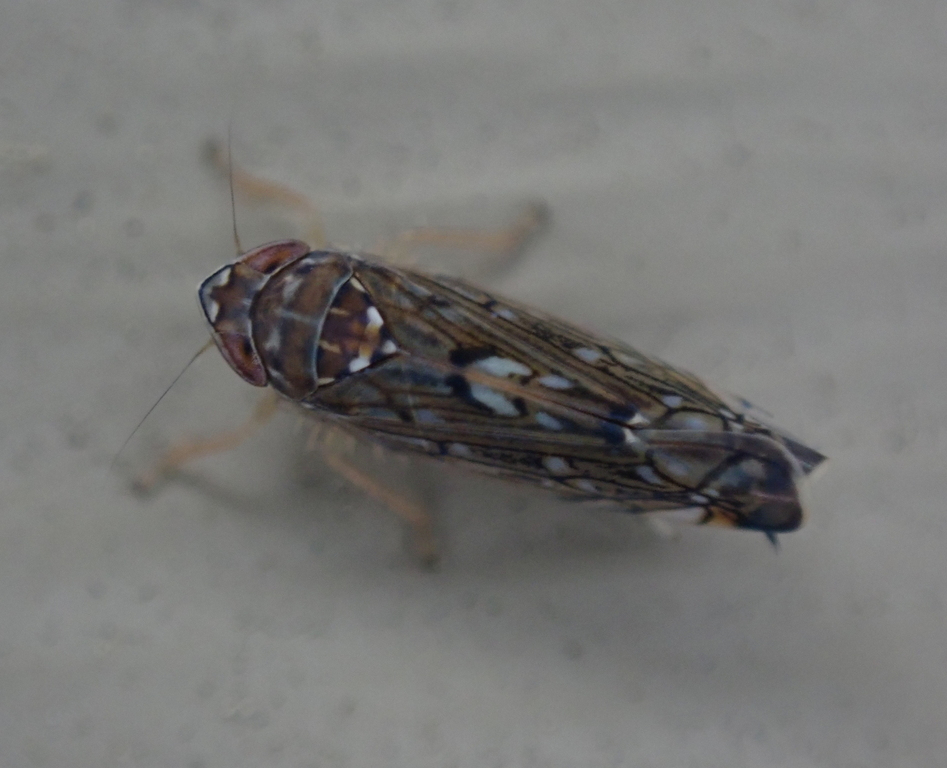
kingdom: Animalia
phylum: Arthropoda
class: Insecta
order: Hemiptera
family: Cicadellidae
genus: Scaphoideus
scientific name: Scaphoideus immistus
